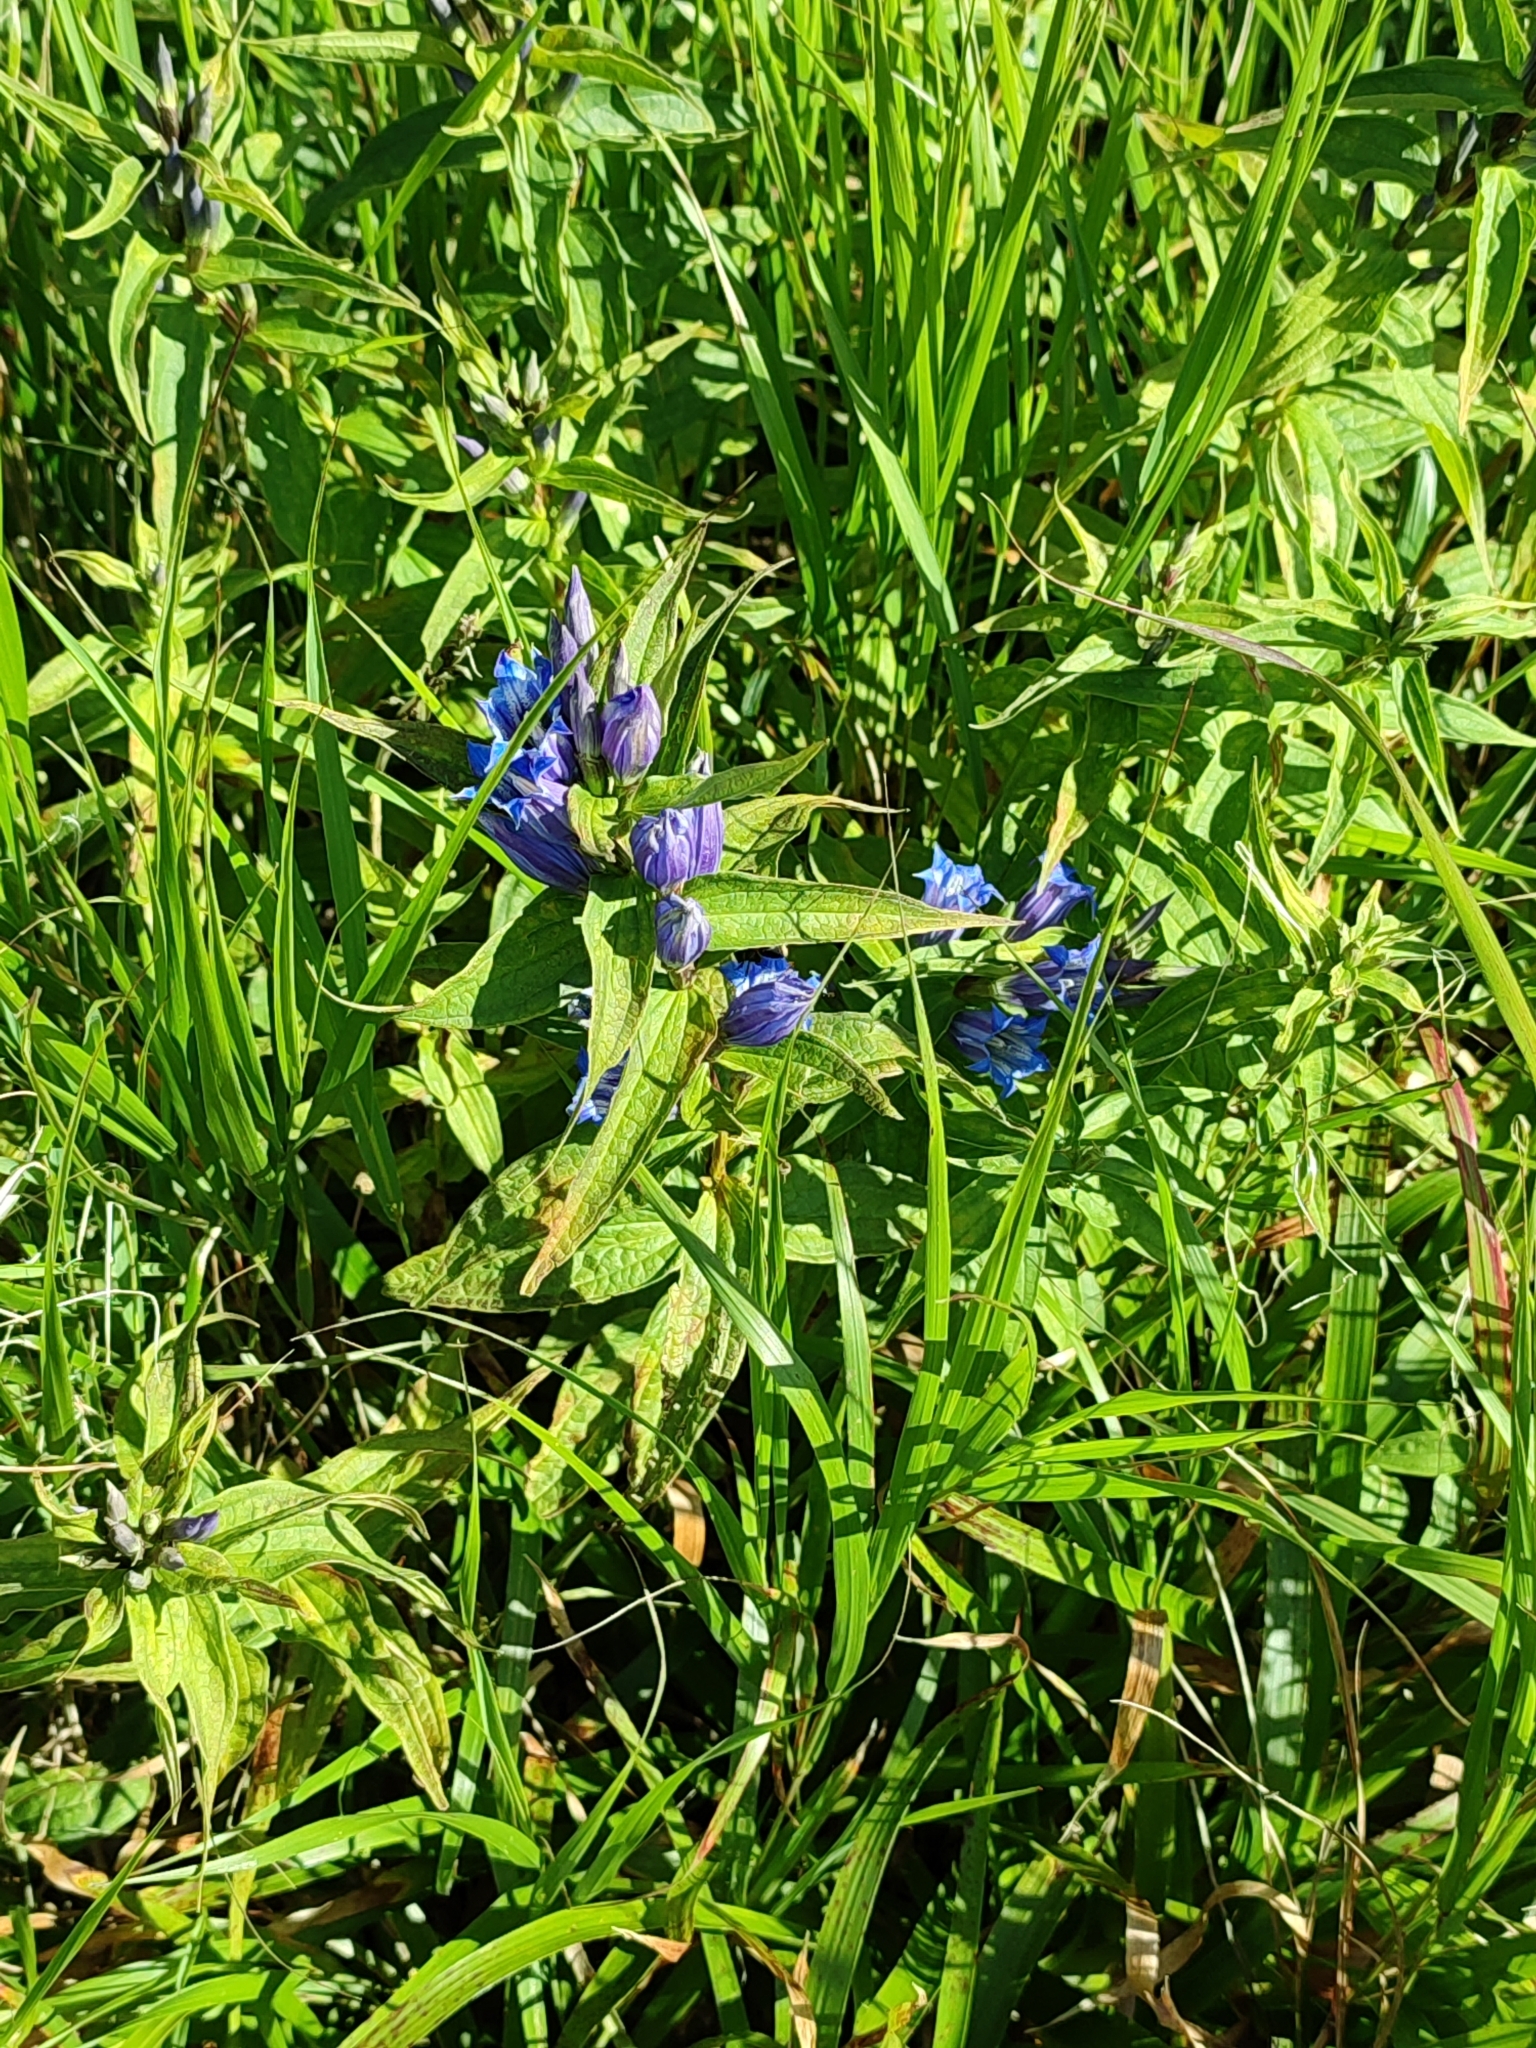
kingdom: Plantae
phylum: Tracheophyta
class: Magnoliopsida
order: Gentianales
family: Gentianaceae
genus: Gentiana
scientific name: Gentiana asclepiadea
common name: Willow gentian
